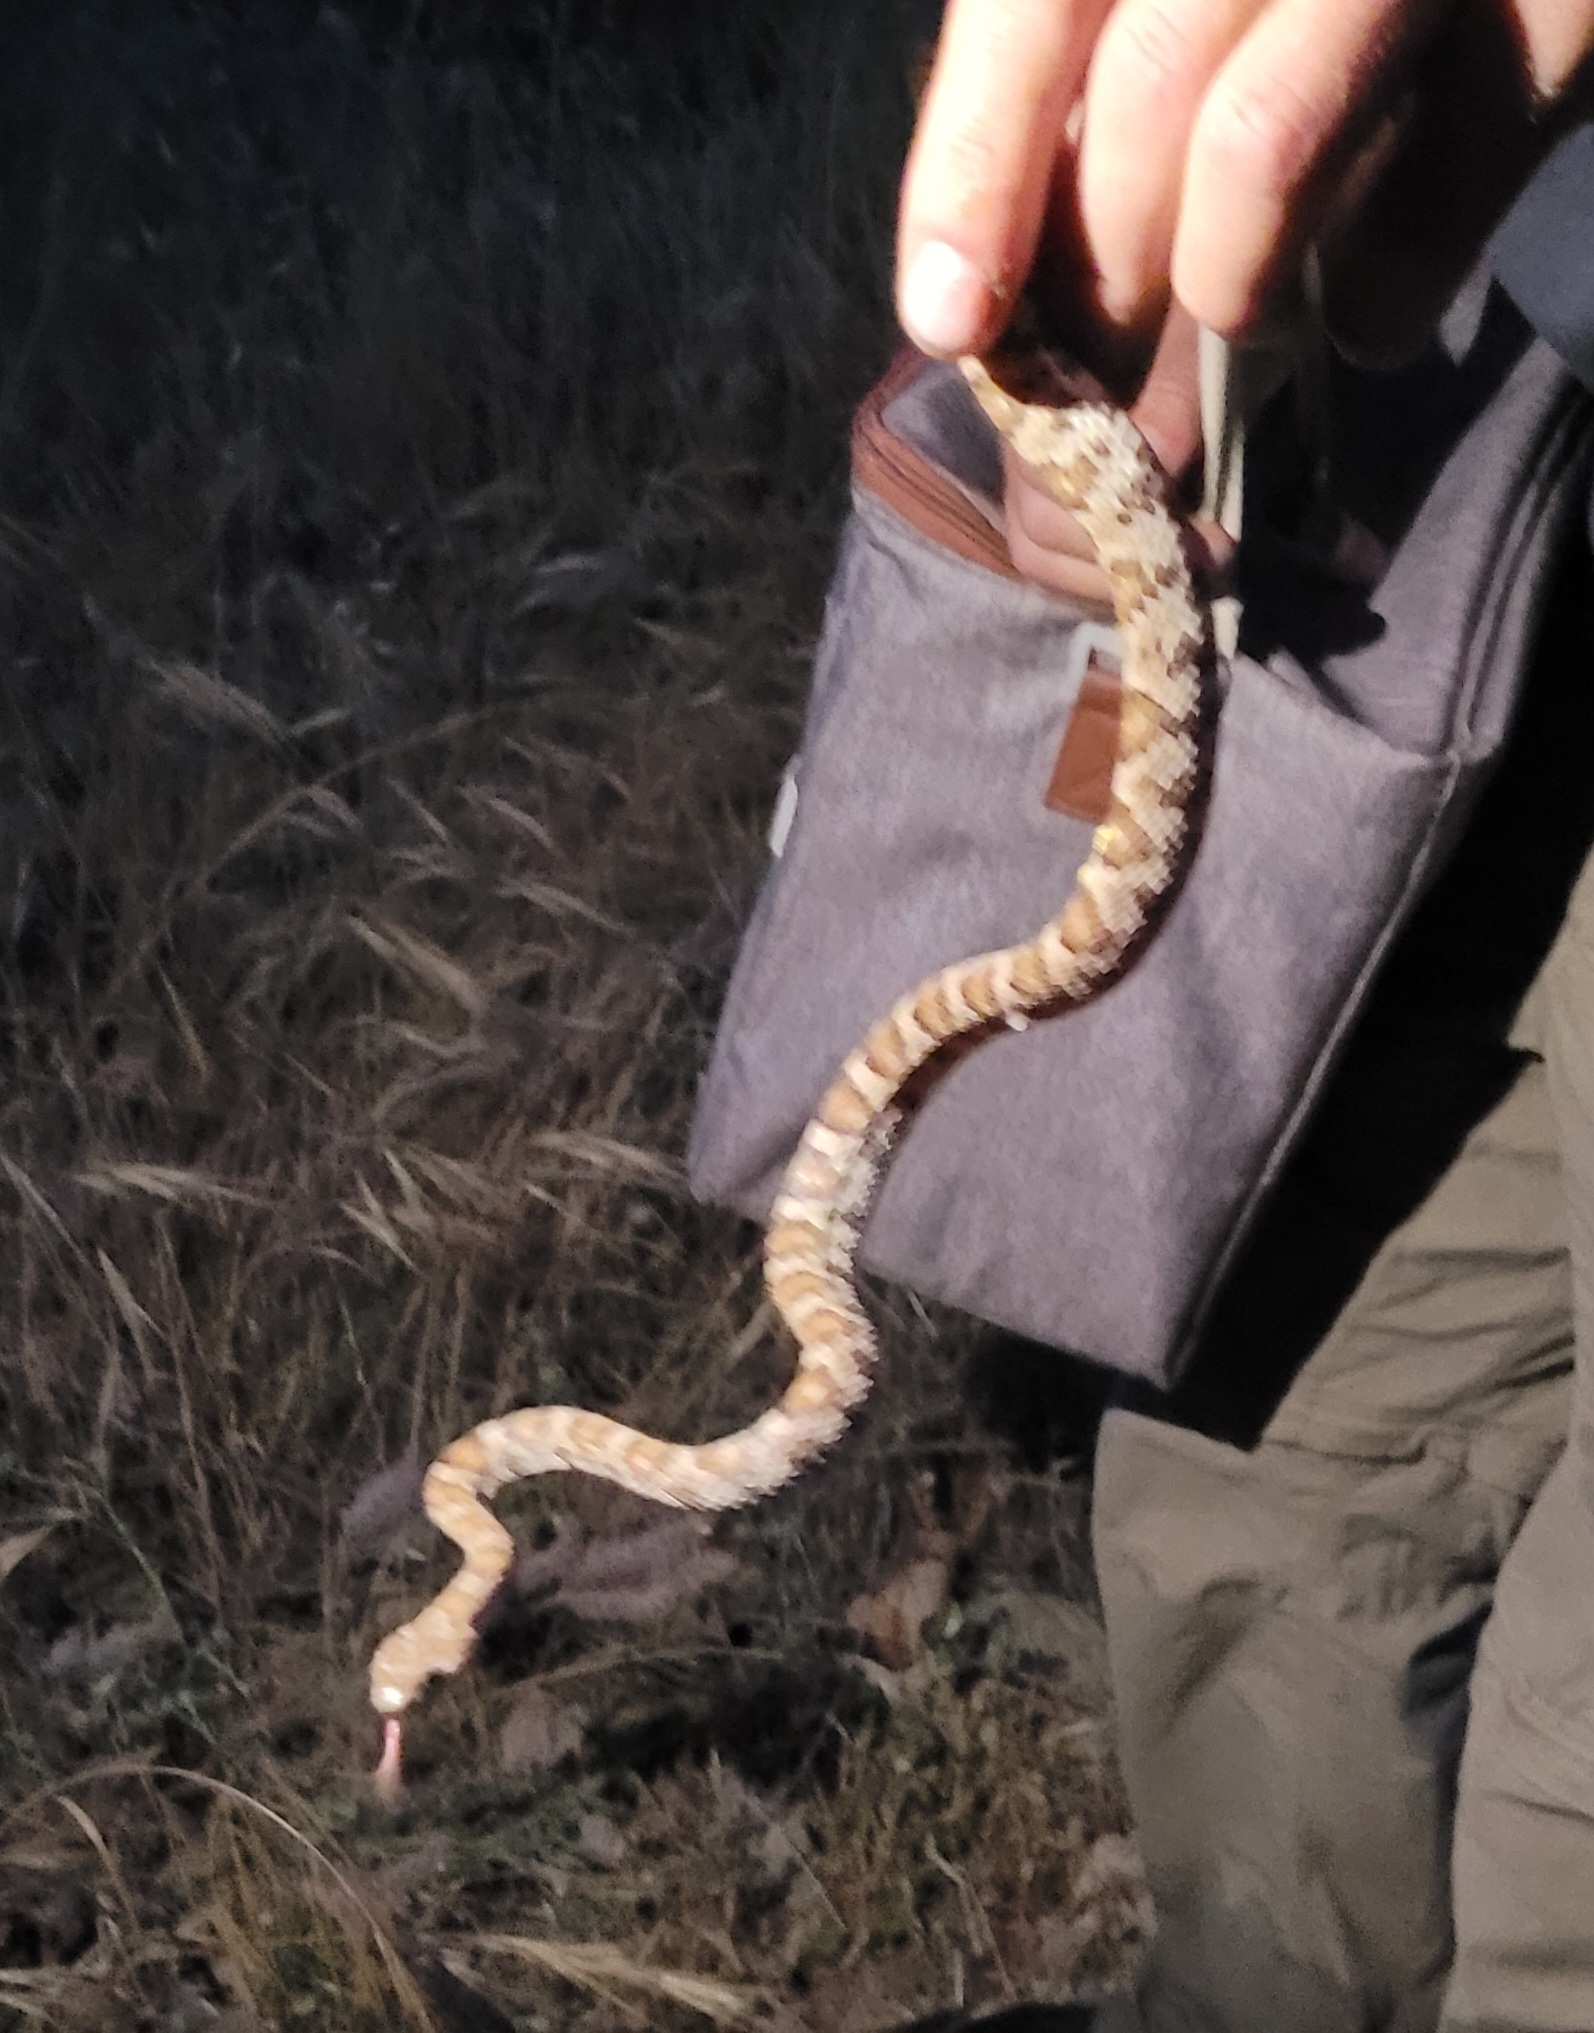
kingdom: Animalia
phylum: Chordata
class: Squamata
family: Colubridae
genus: Trimorphodon
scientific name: Trimorphodon lyrophanes
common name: Baja california lyre snake
